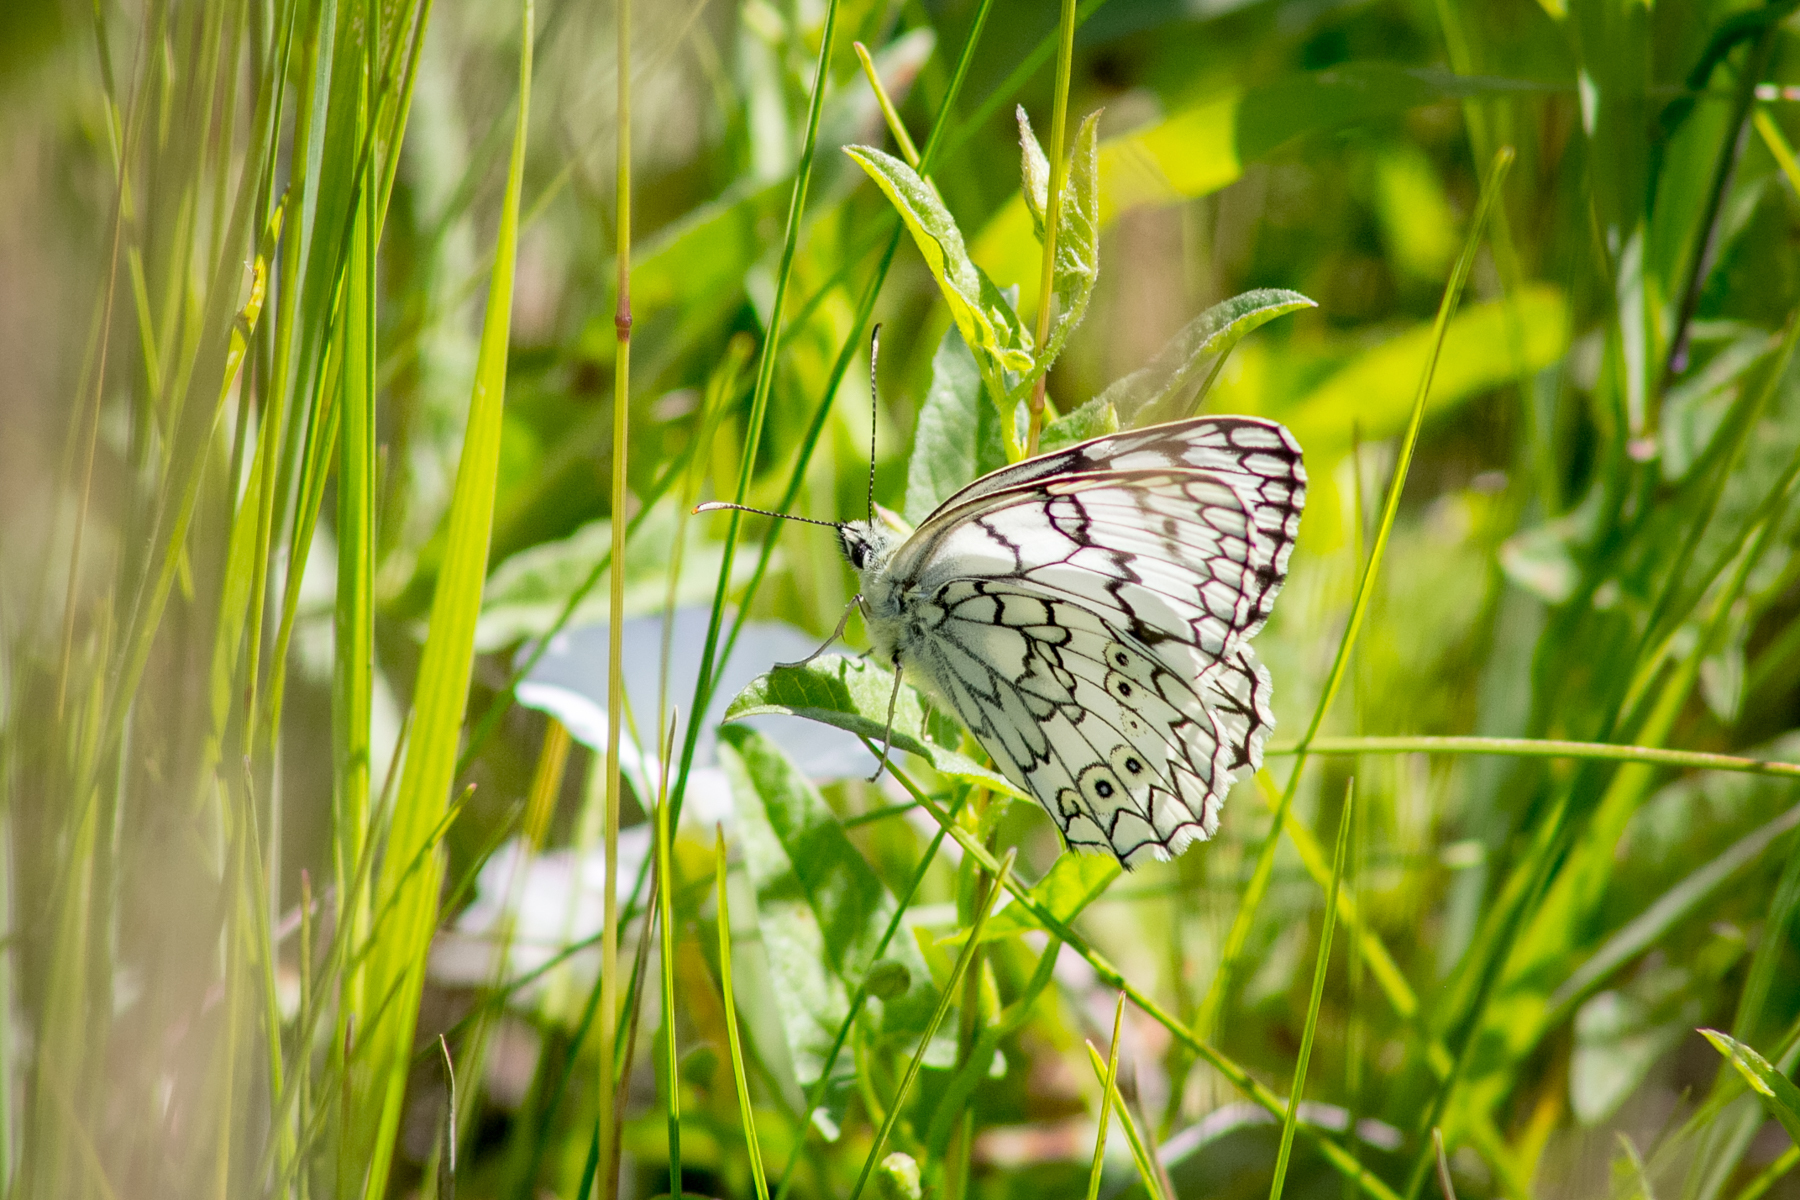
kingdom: Animalia
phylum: Arthropoda
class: Insecta
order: Lepidoptera
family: Nymphalidae
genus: Melanargia
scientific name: Melanargia japygia
